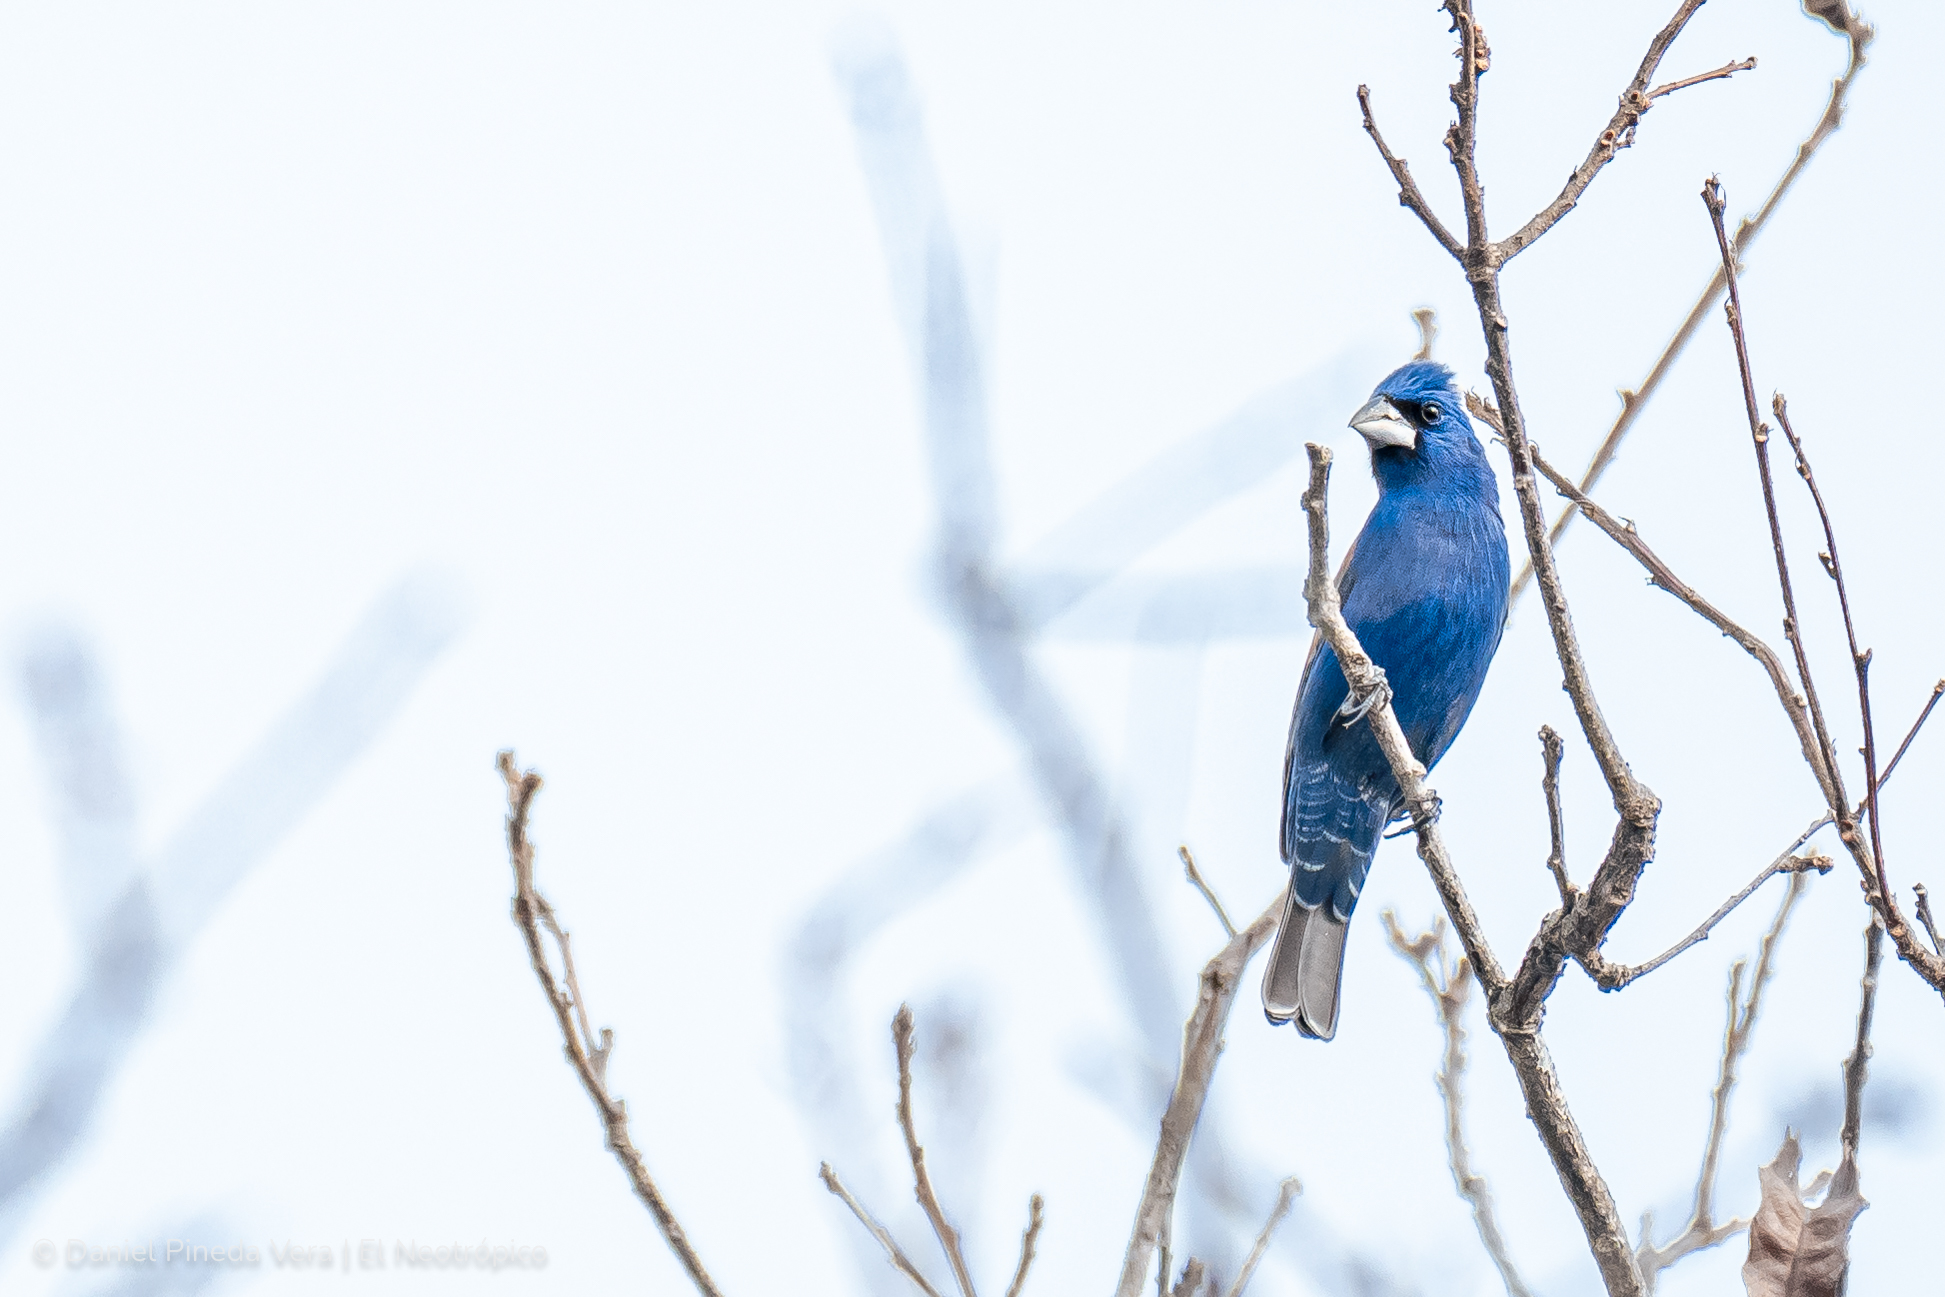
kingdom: Animalia
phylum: Chordata
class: Aves
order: Passeriformes
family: Cardinalidae
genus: Passerina
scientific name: Passerina caerulea
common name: Blue grosbeak
